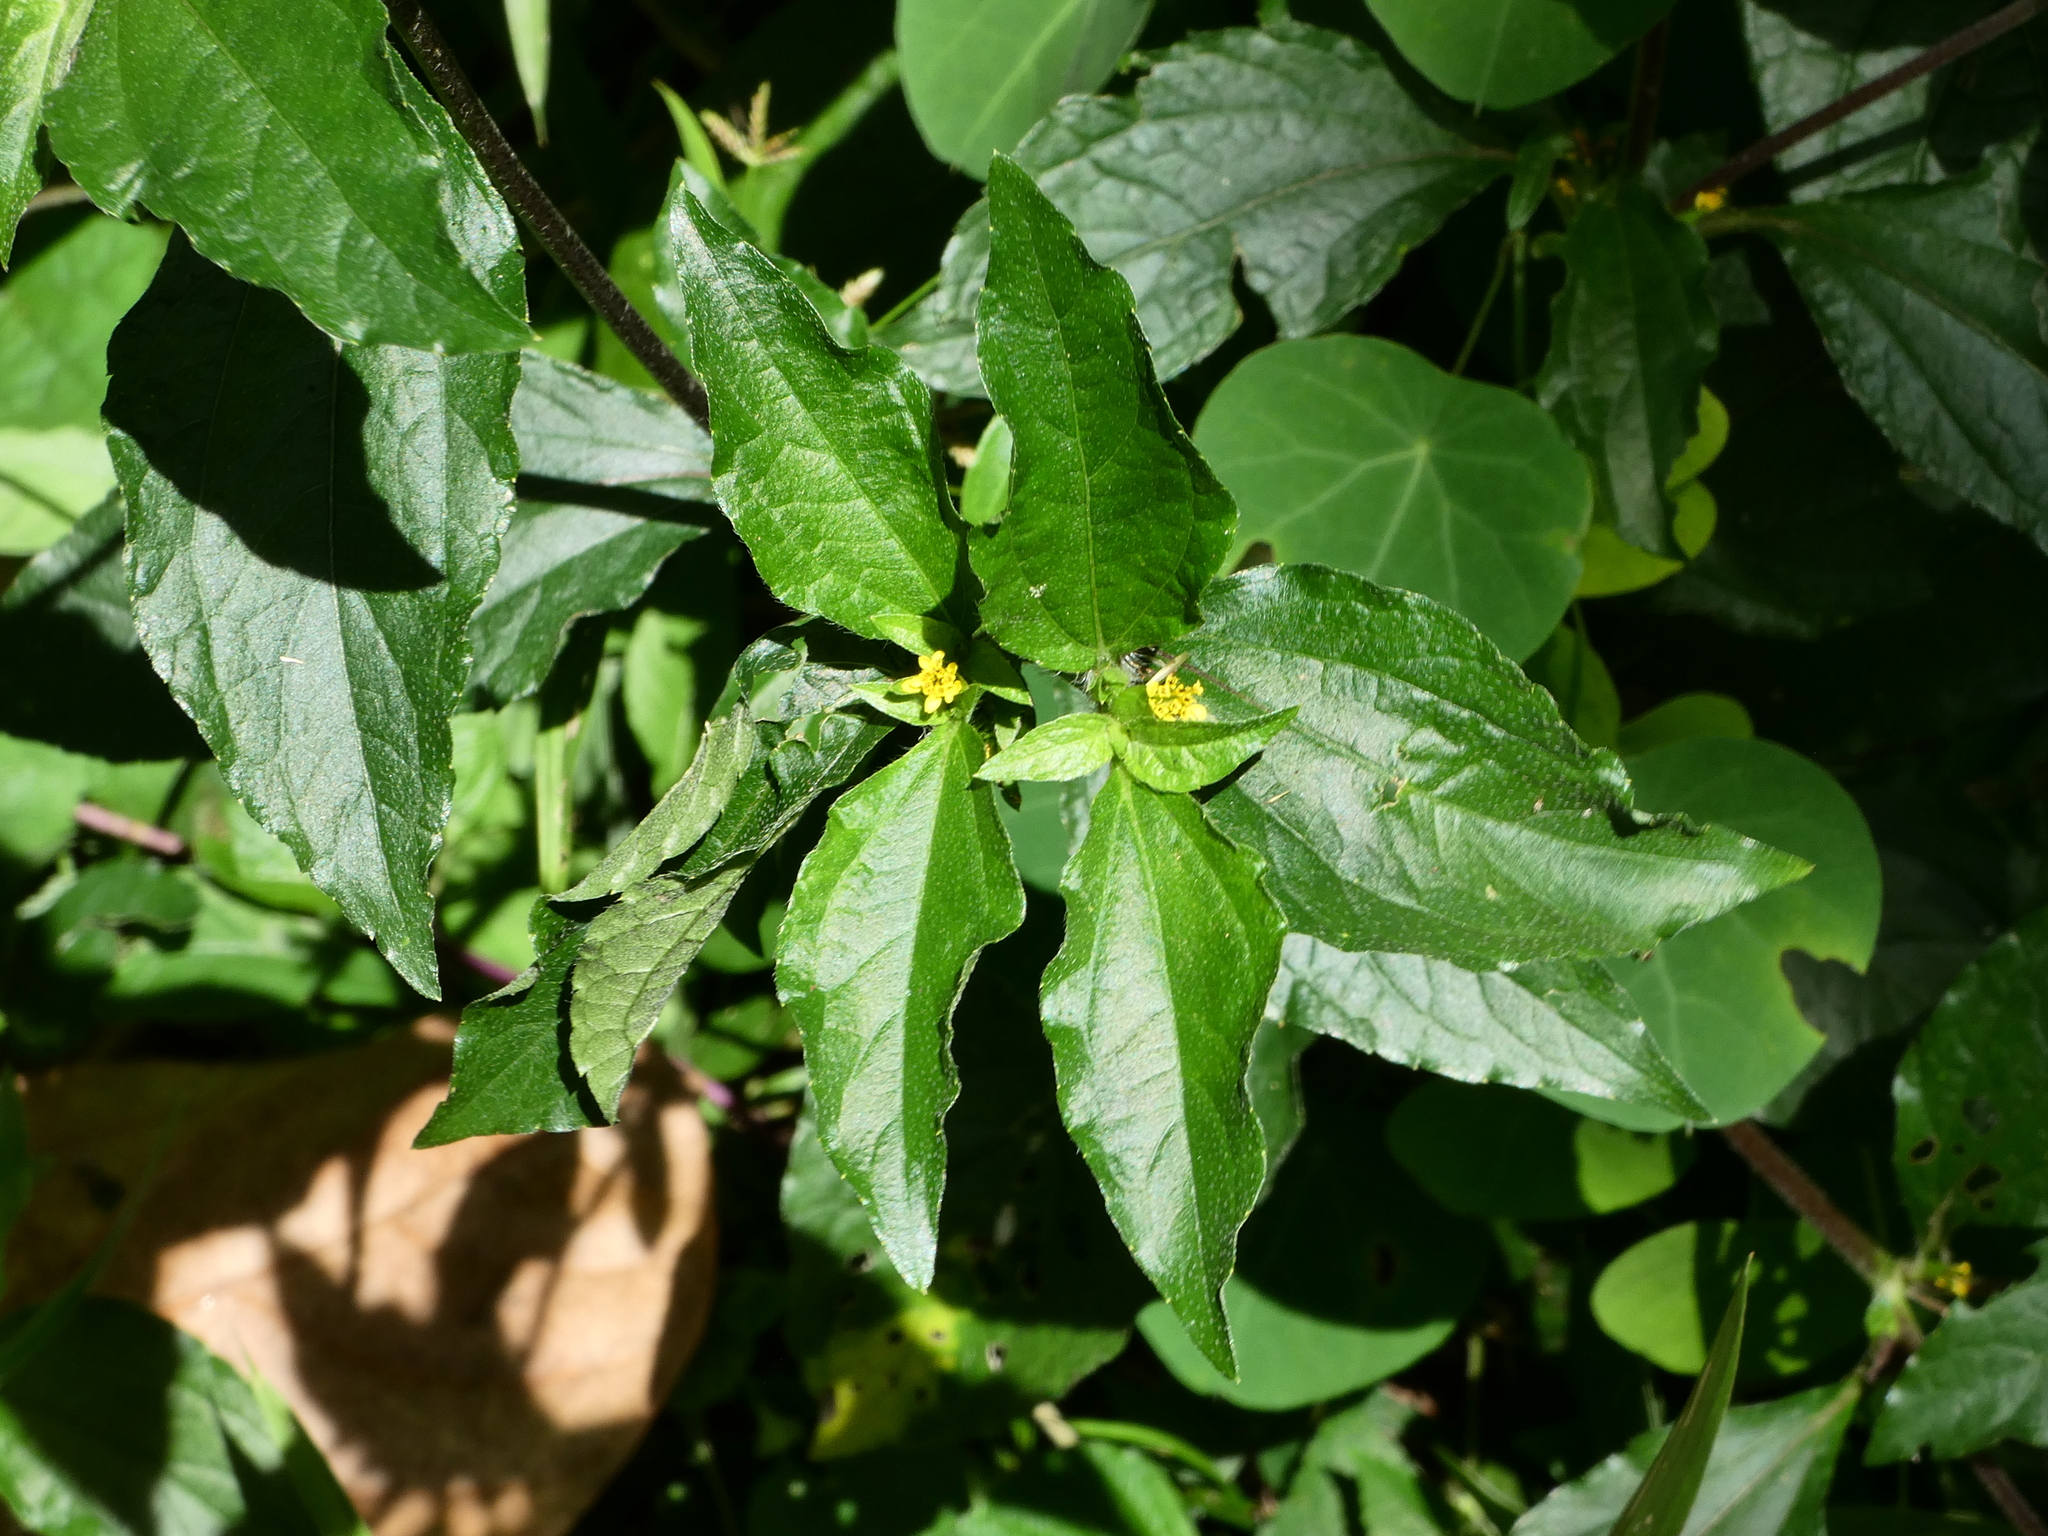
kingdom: Plantae
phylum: Tracheophyta
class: Magnoliopsida
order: Asterales
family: Asteraceae
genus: Synedrella
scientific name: Synedrella nodiflora
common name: Nodeweed
